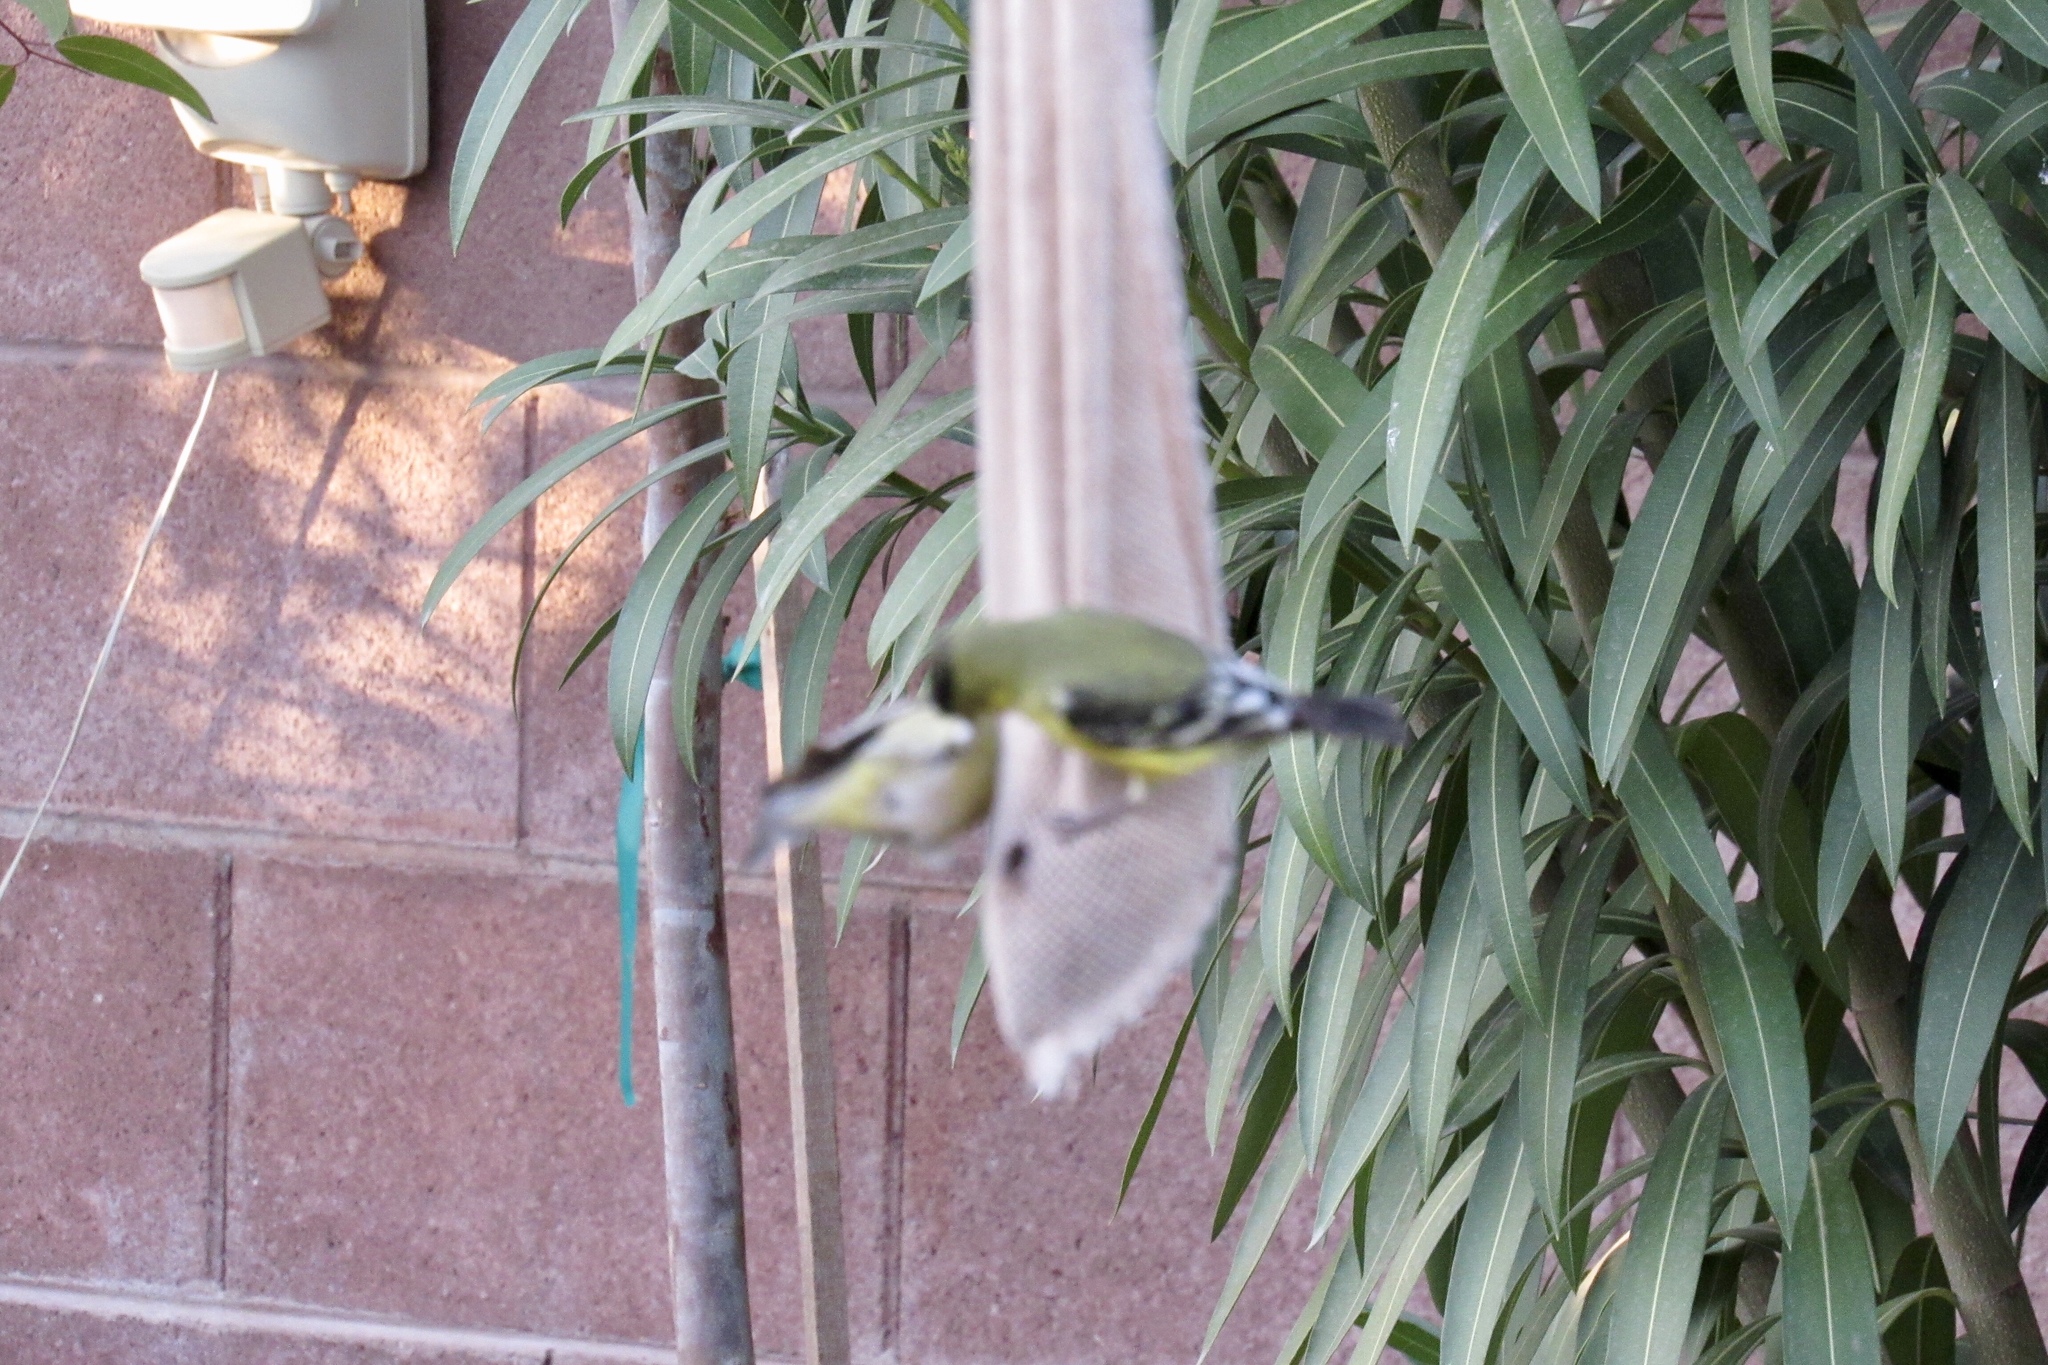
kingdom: Animalia
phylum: Chordata
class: Aves
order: Passeriformes
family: Fringillidae
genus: Spinus
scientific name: Spinus psaltria
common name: Lesser goldfinch
